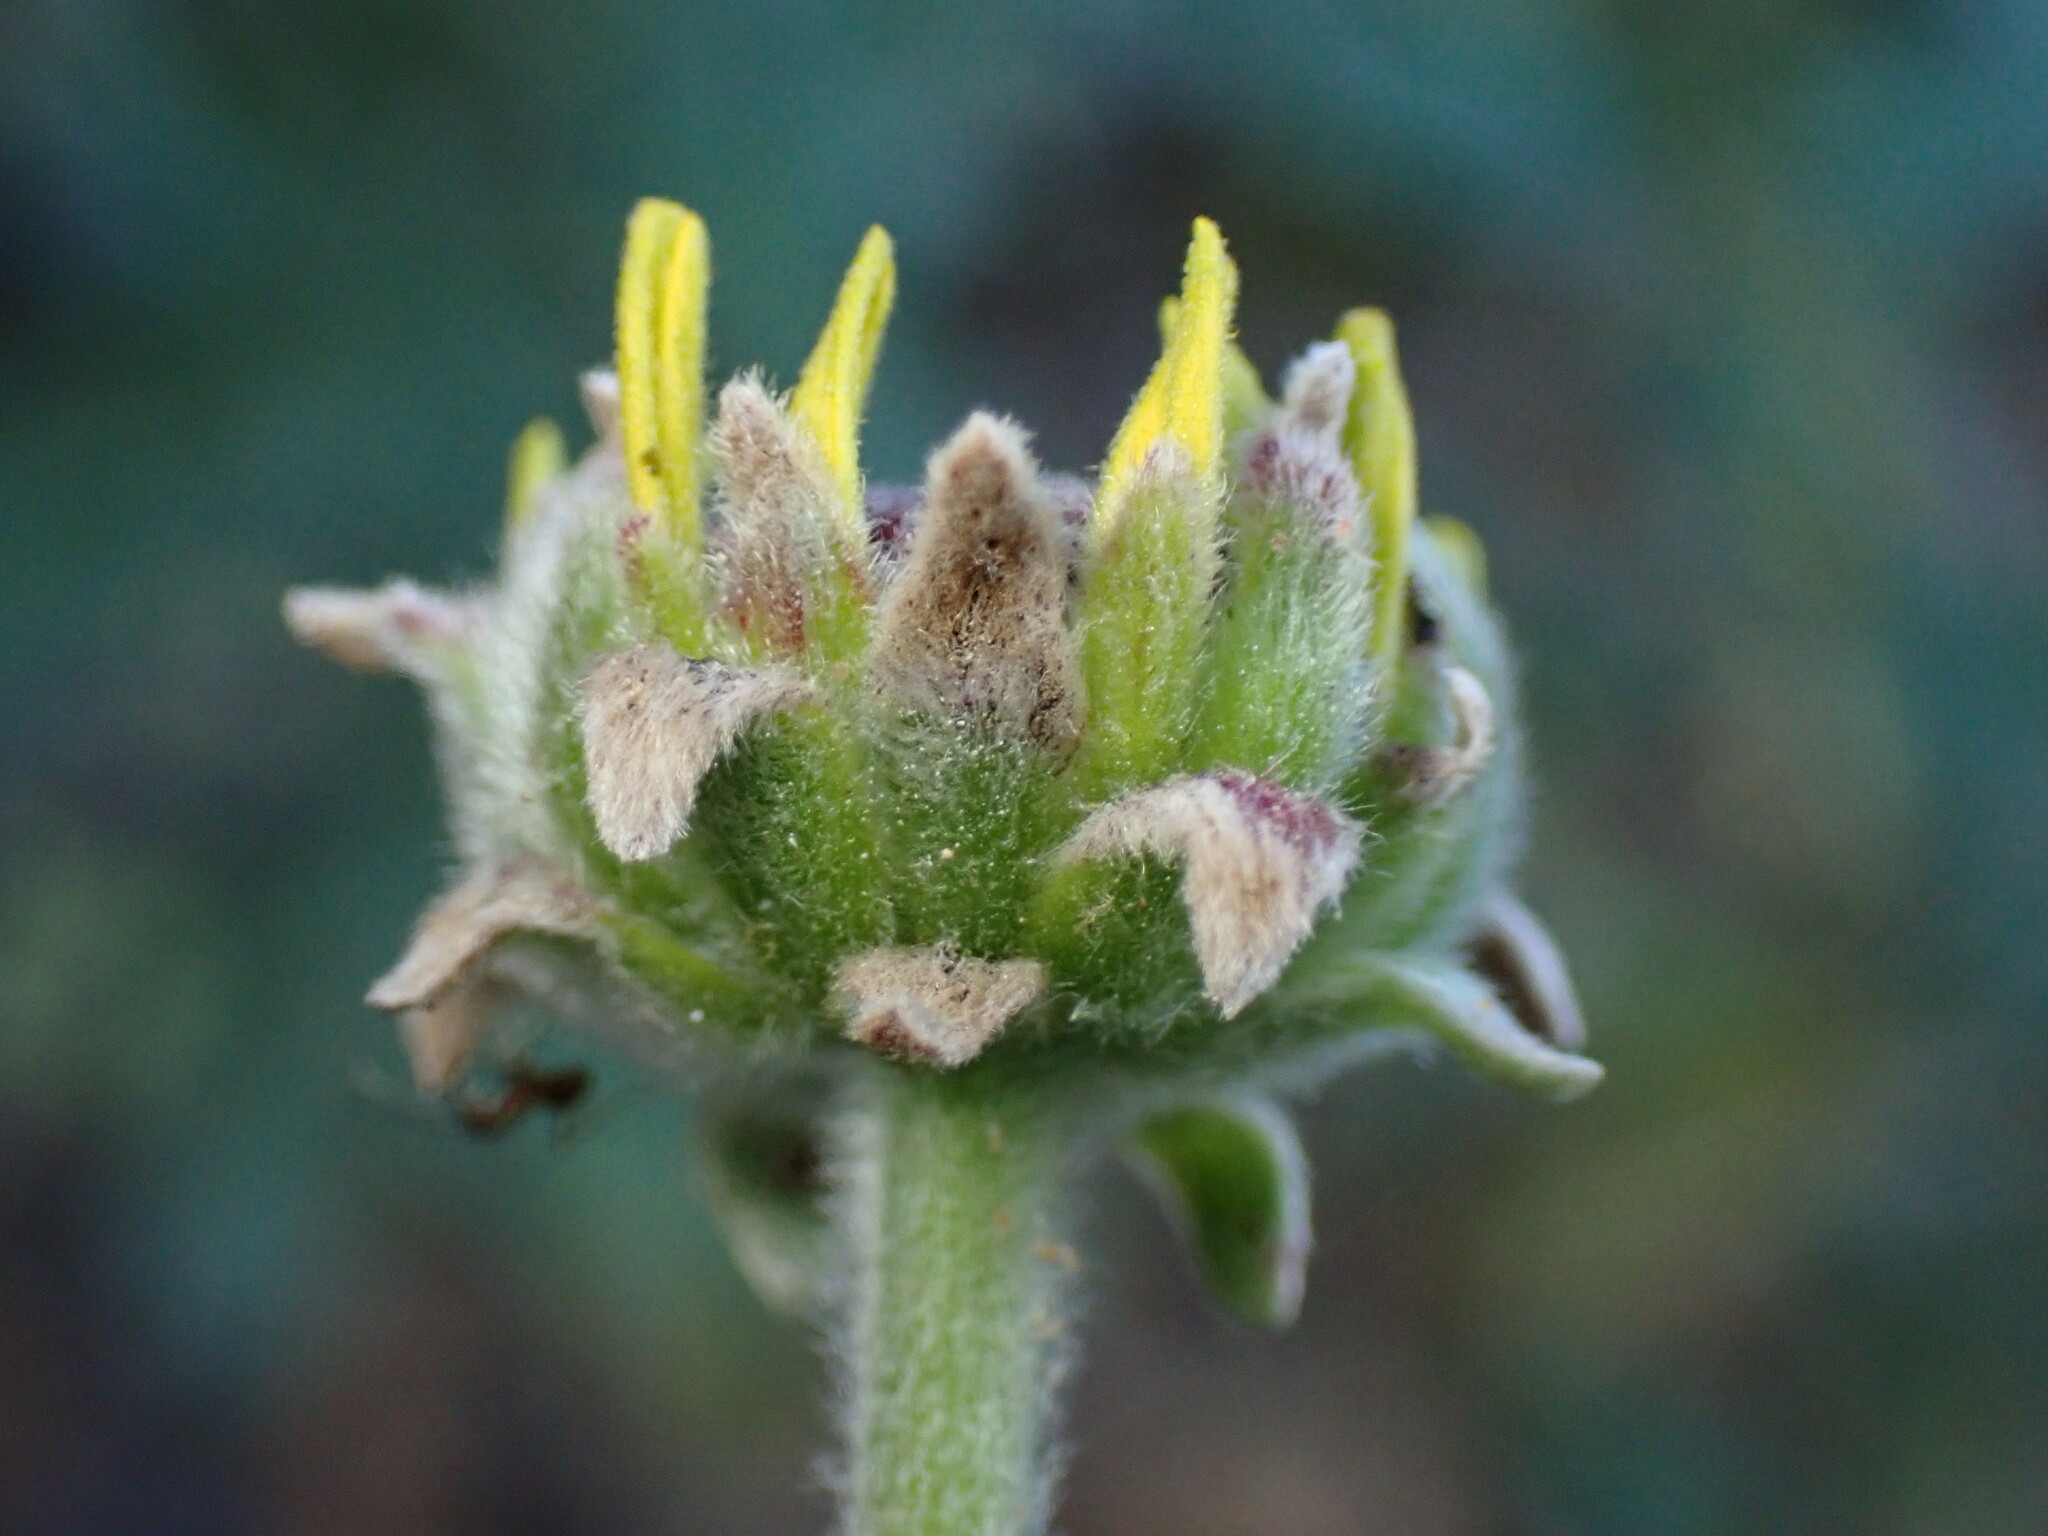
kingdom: Plantae
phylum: Tracheophyta
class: Magnoliopsida
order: Asterales
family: Asteraceae
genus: Encelia
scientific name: Encelia californica
